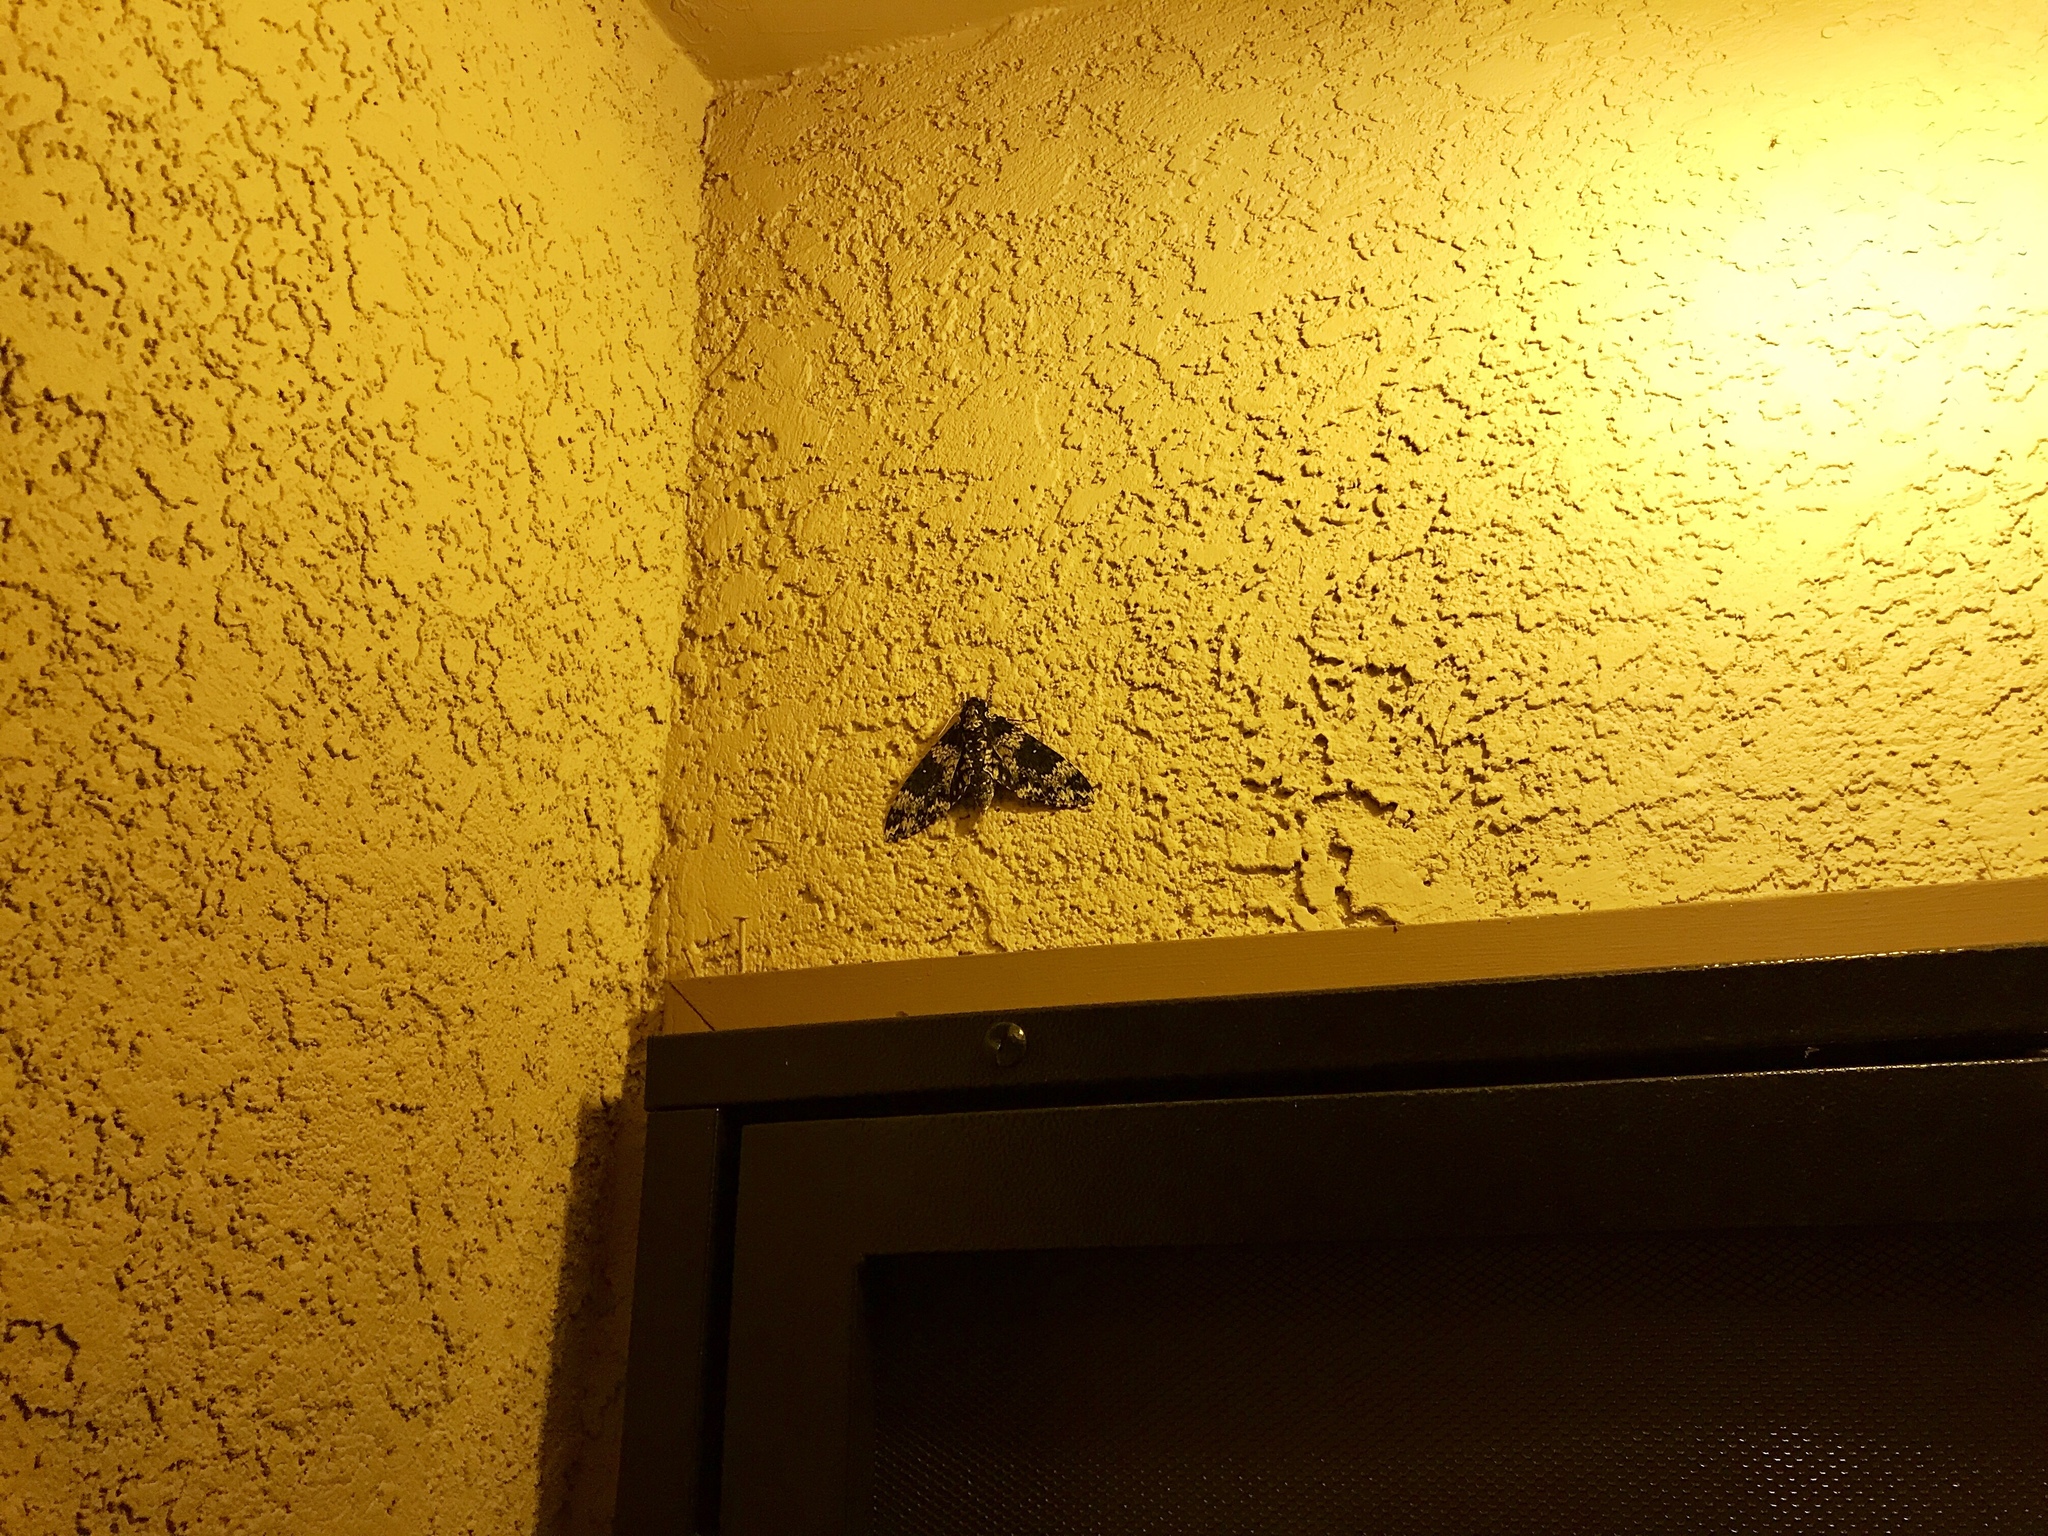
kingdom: Animalia
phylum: Arthropoda
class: Insecta
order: Lepidoptera
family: Sphingidae
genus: Manduca
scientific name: Manduca rustica
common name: Rustic sphinx
